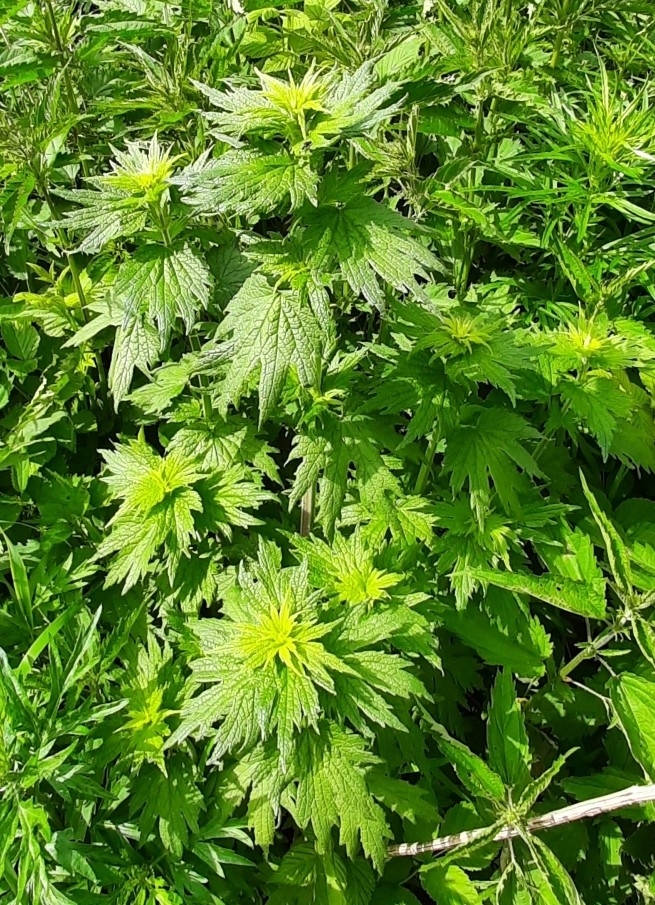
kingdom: Plantae
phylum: Tracheophyta
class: Magnoliopsida
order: Lamiales
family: Lamiaceae
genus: Leonurus
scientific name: Leonurus quinquelobatus
